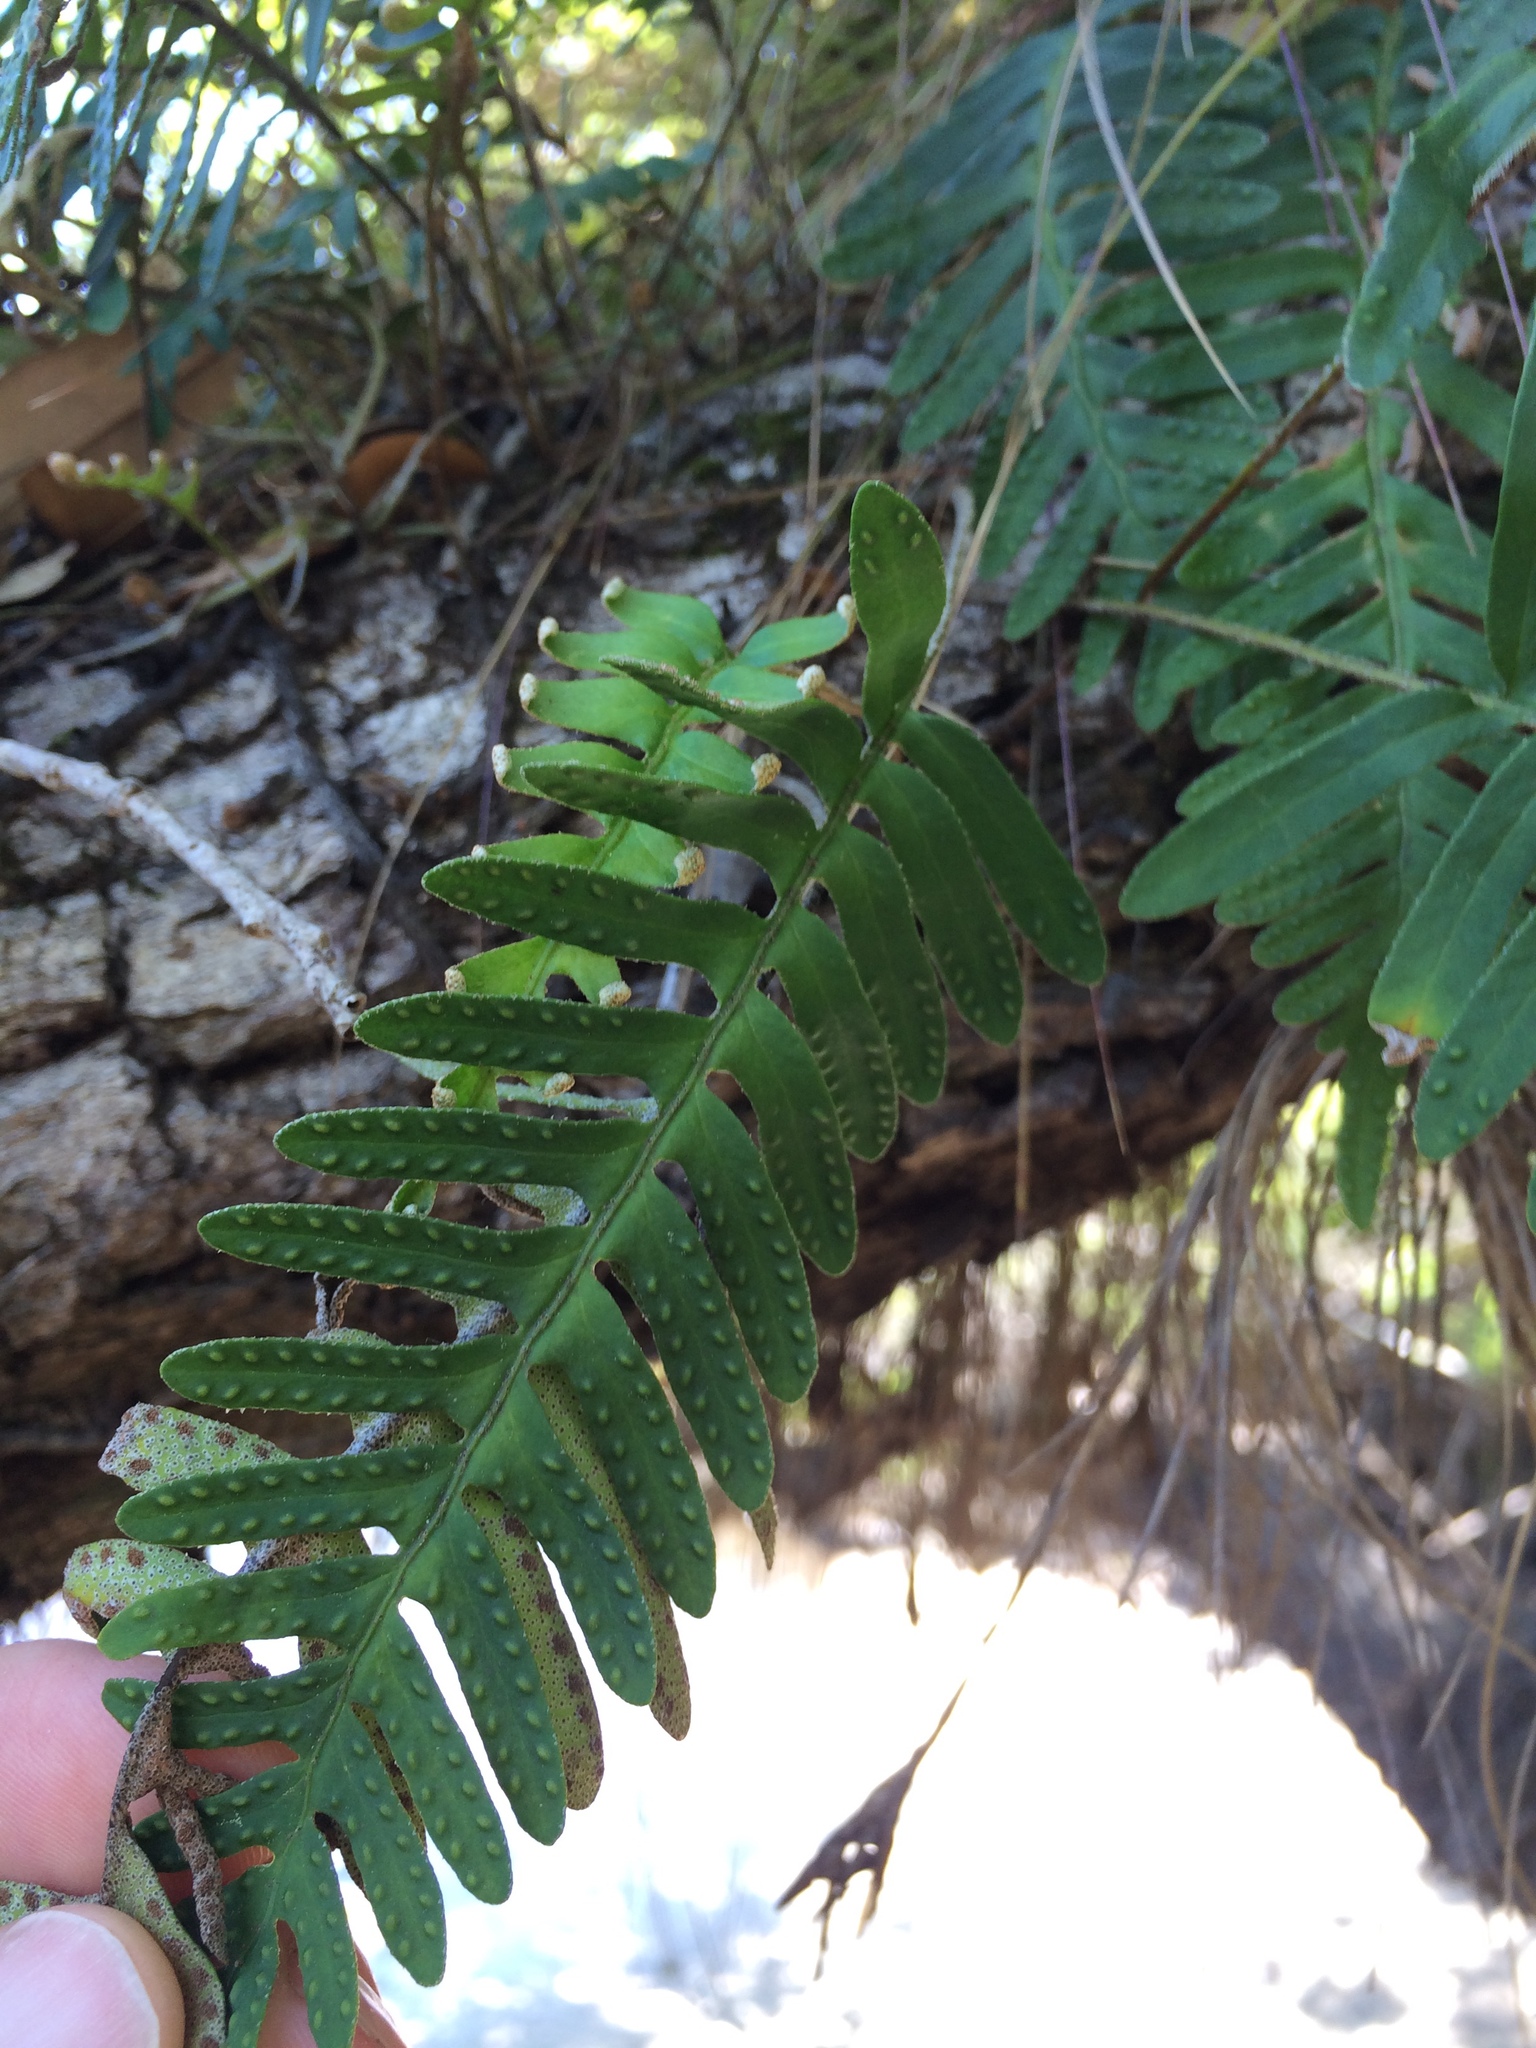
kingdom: Plantae
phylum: Tracheophyta
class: Polypodiopsida
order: Polypodiales
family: Polypodiaceae
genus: Pleopeltis
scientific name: Pleopeltis michauxiana
